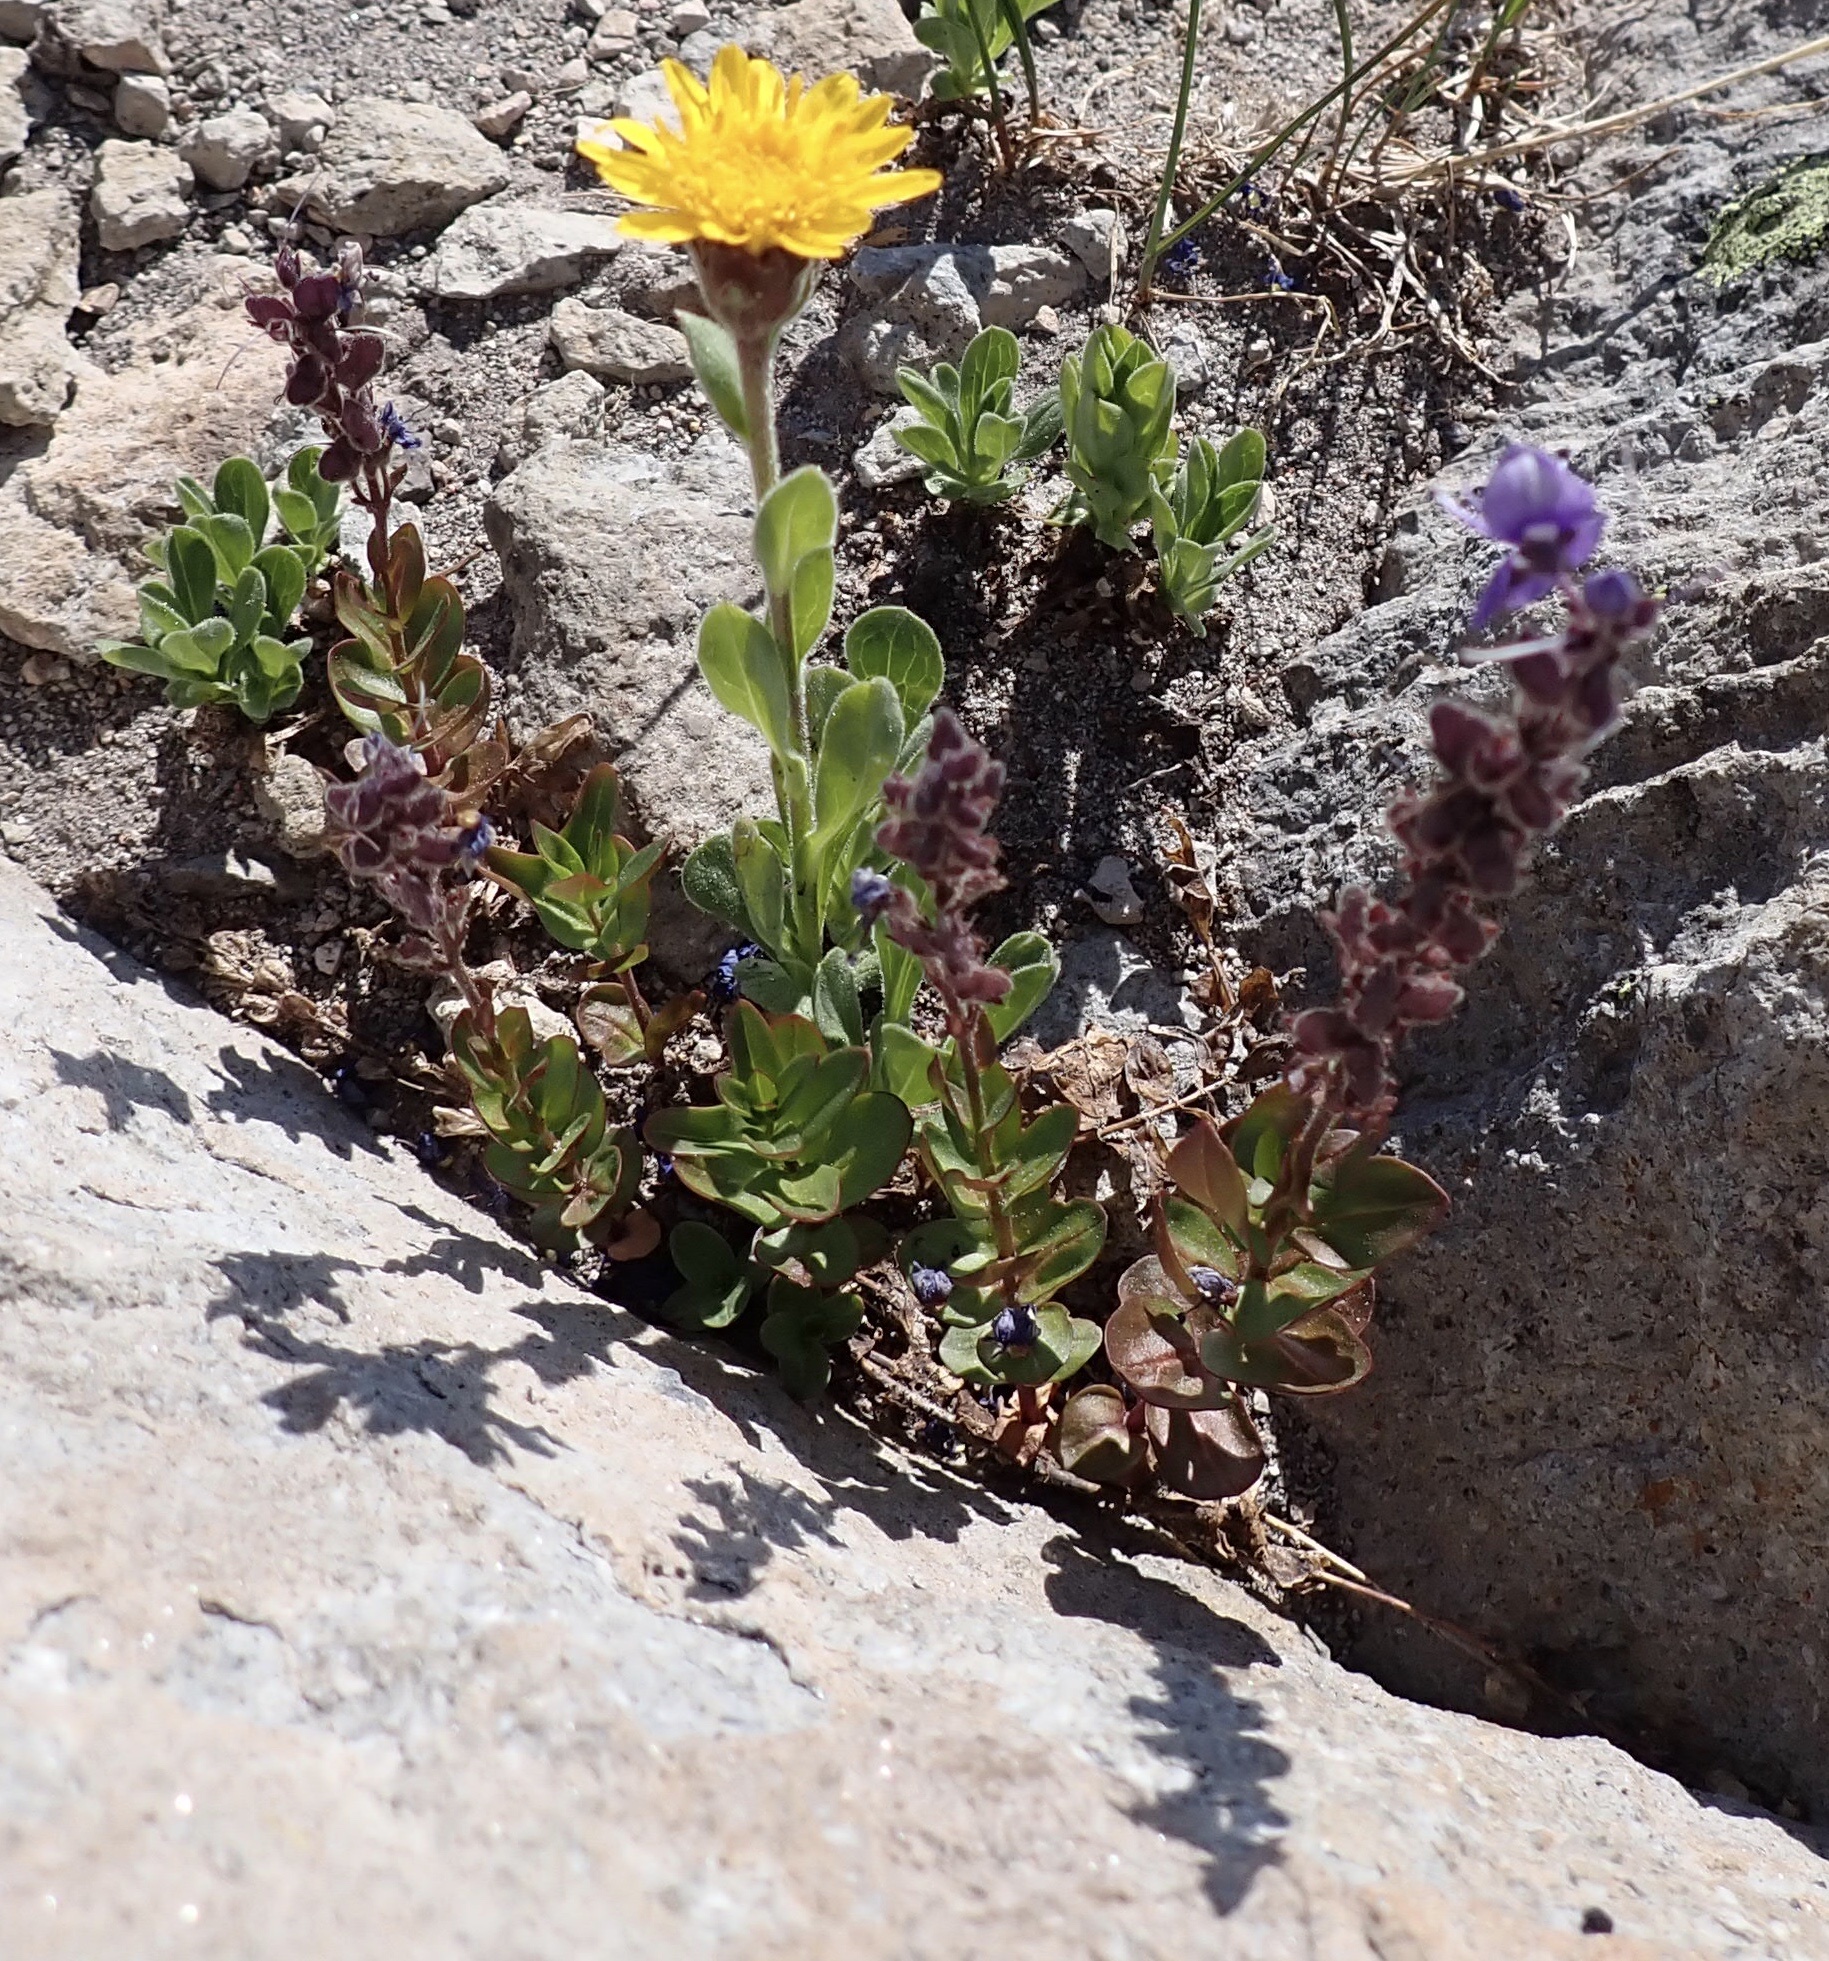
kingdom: Plantae
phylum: Tracheophyta
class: Magnoliopsida
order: Lamiales
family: Plantaginaceae
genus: Veronica
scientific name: Veronica cusickii
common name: Cusick's speedwell
